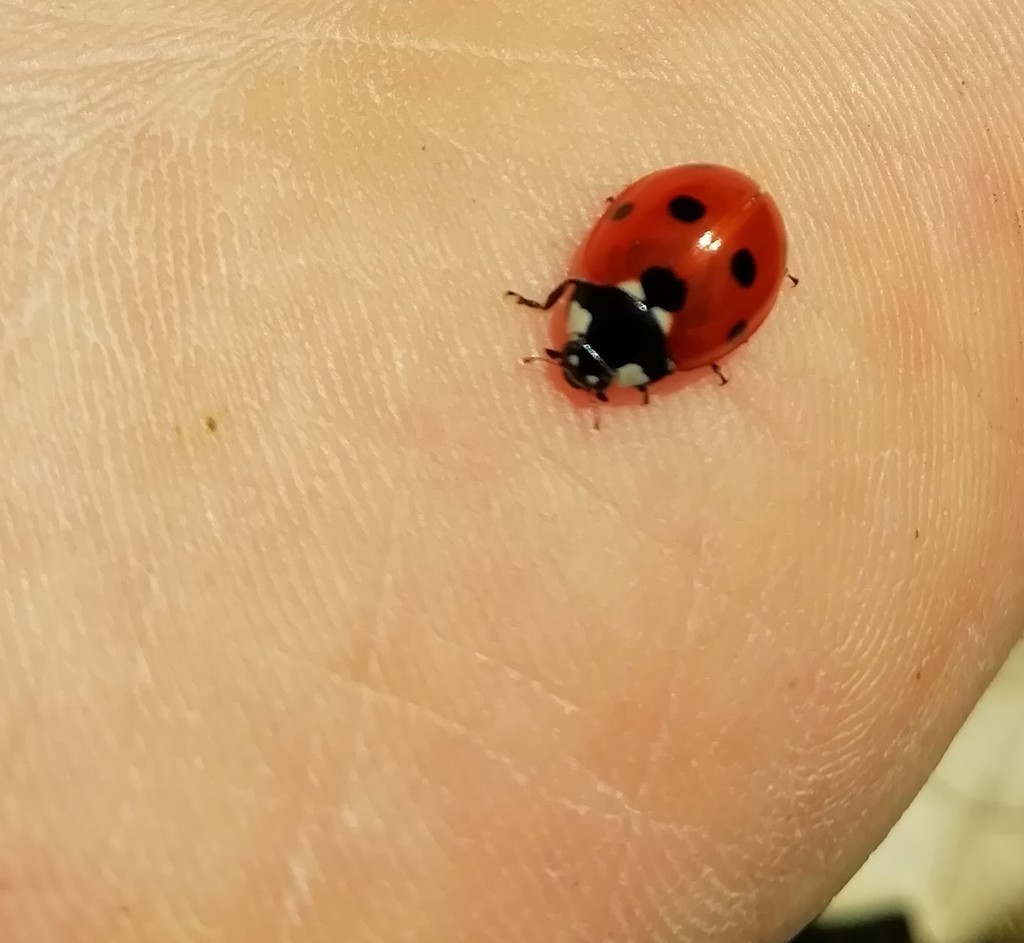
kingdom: Animalia
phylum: Arthropoda
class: Insecta
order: Coleoptera
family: Coccinellidae
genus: Coccinella
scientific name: Coccinella septempunctata
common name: Sevenspotted lady beetle
